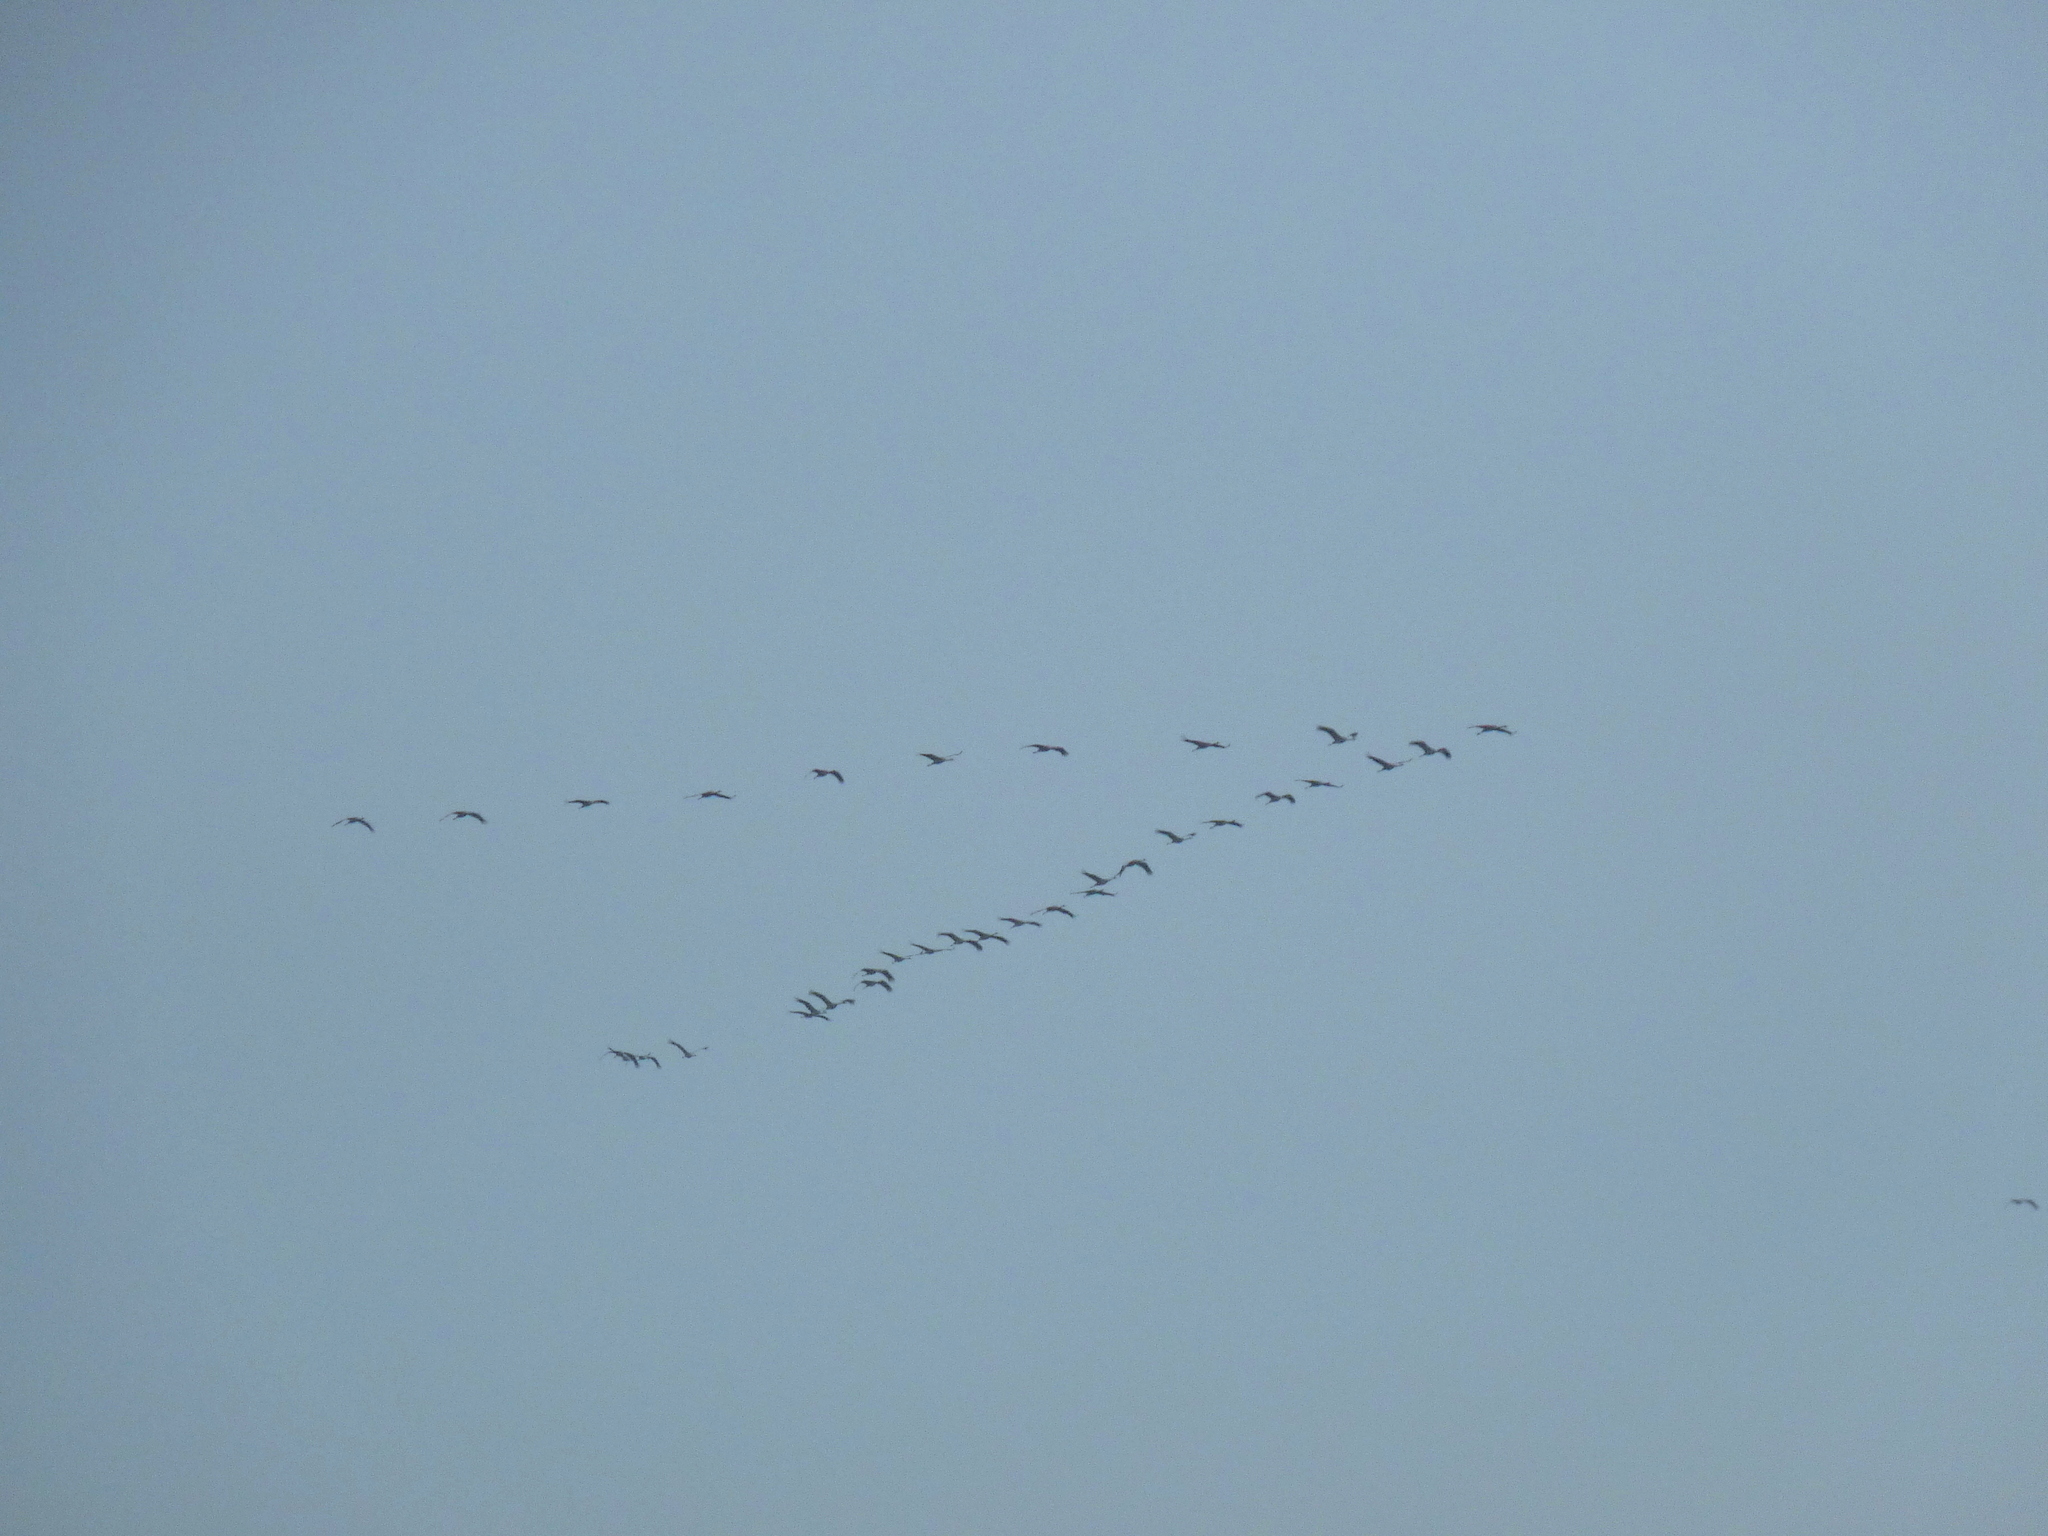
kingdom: Animalia
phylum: Chordata
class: Aves
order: Gruiformes
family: Gruidae
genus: Grus
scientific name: Grus grus
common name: Common crane
